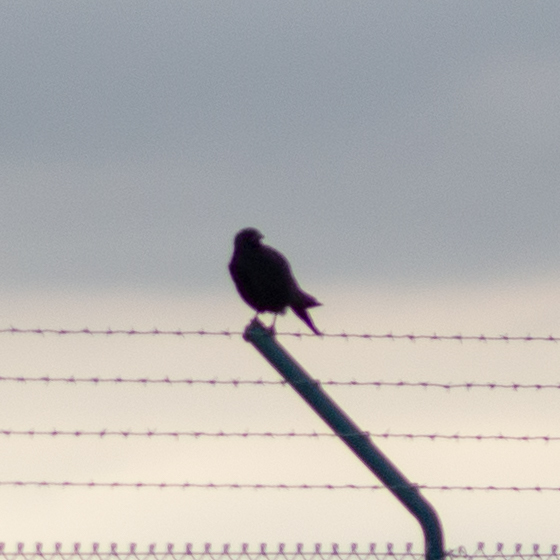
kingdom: Animalia
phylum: Chordata
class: Aves
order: Passeriformes
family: Corvidae
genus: Corvus
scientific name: Corvus corone
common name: Carrion crow
